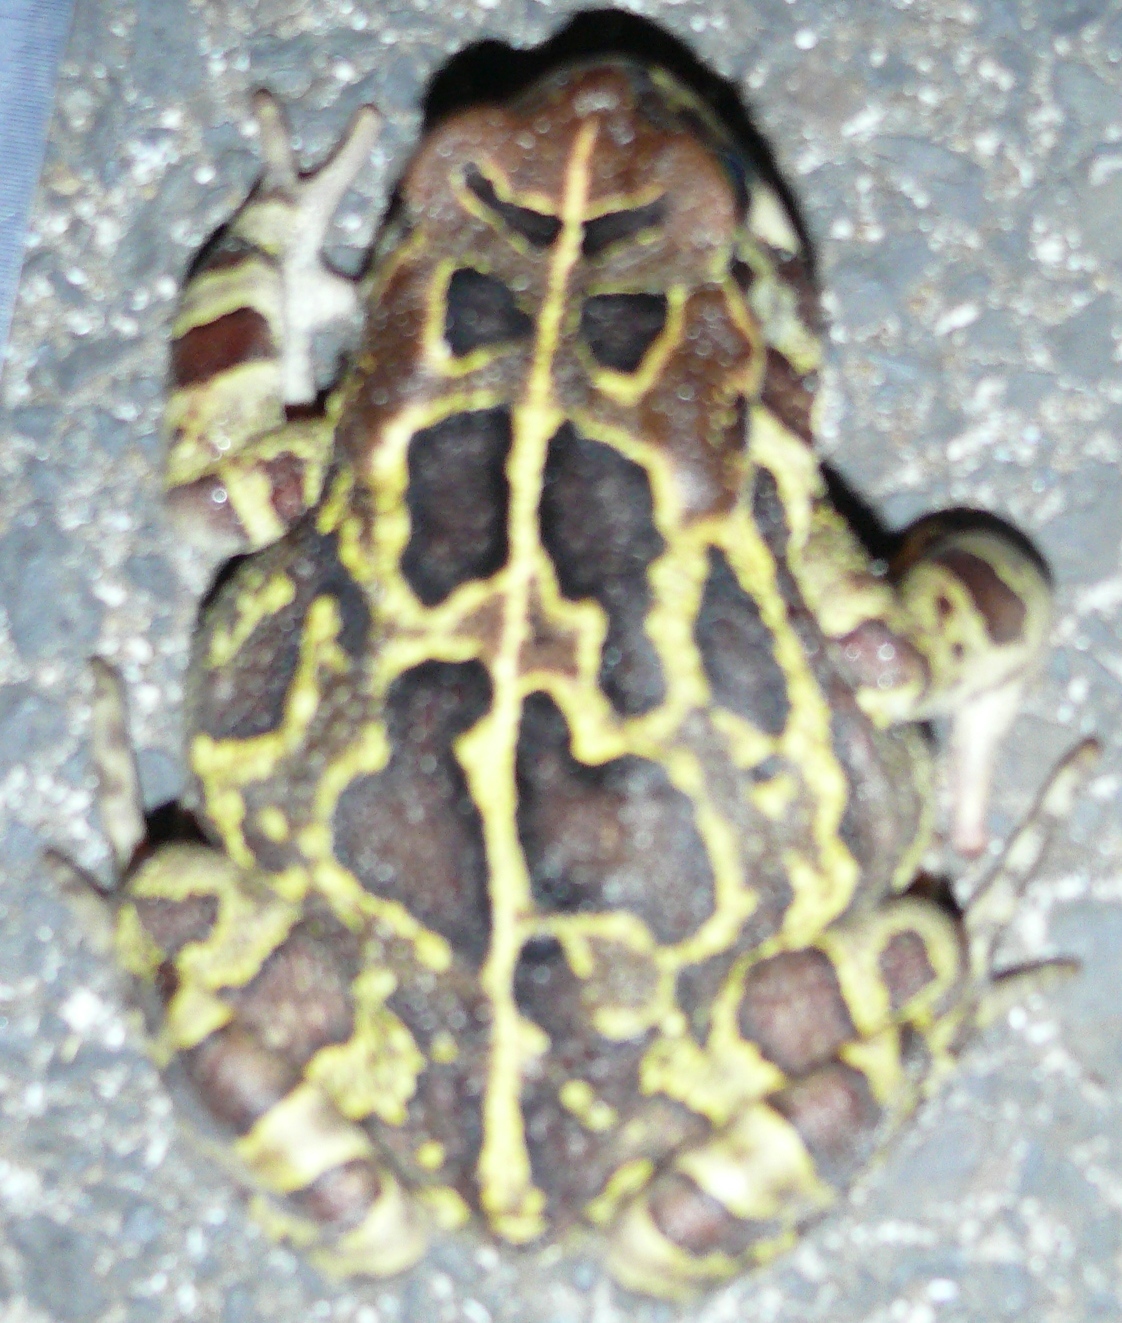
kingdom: Animalia
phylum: Chordata
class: Amphibia
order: Anura
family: Bufonidae
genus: Sclerophrys
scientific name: Sclerophrys pantherina
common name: Panther toad
